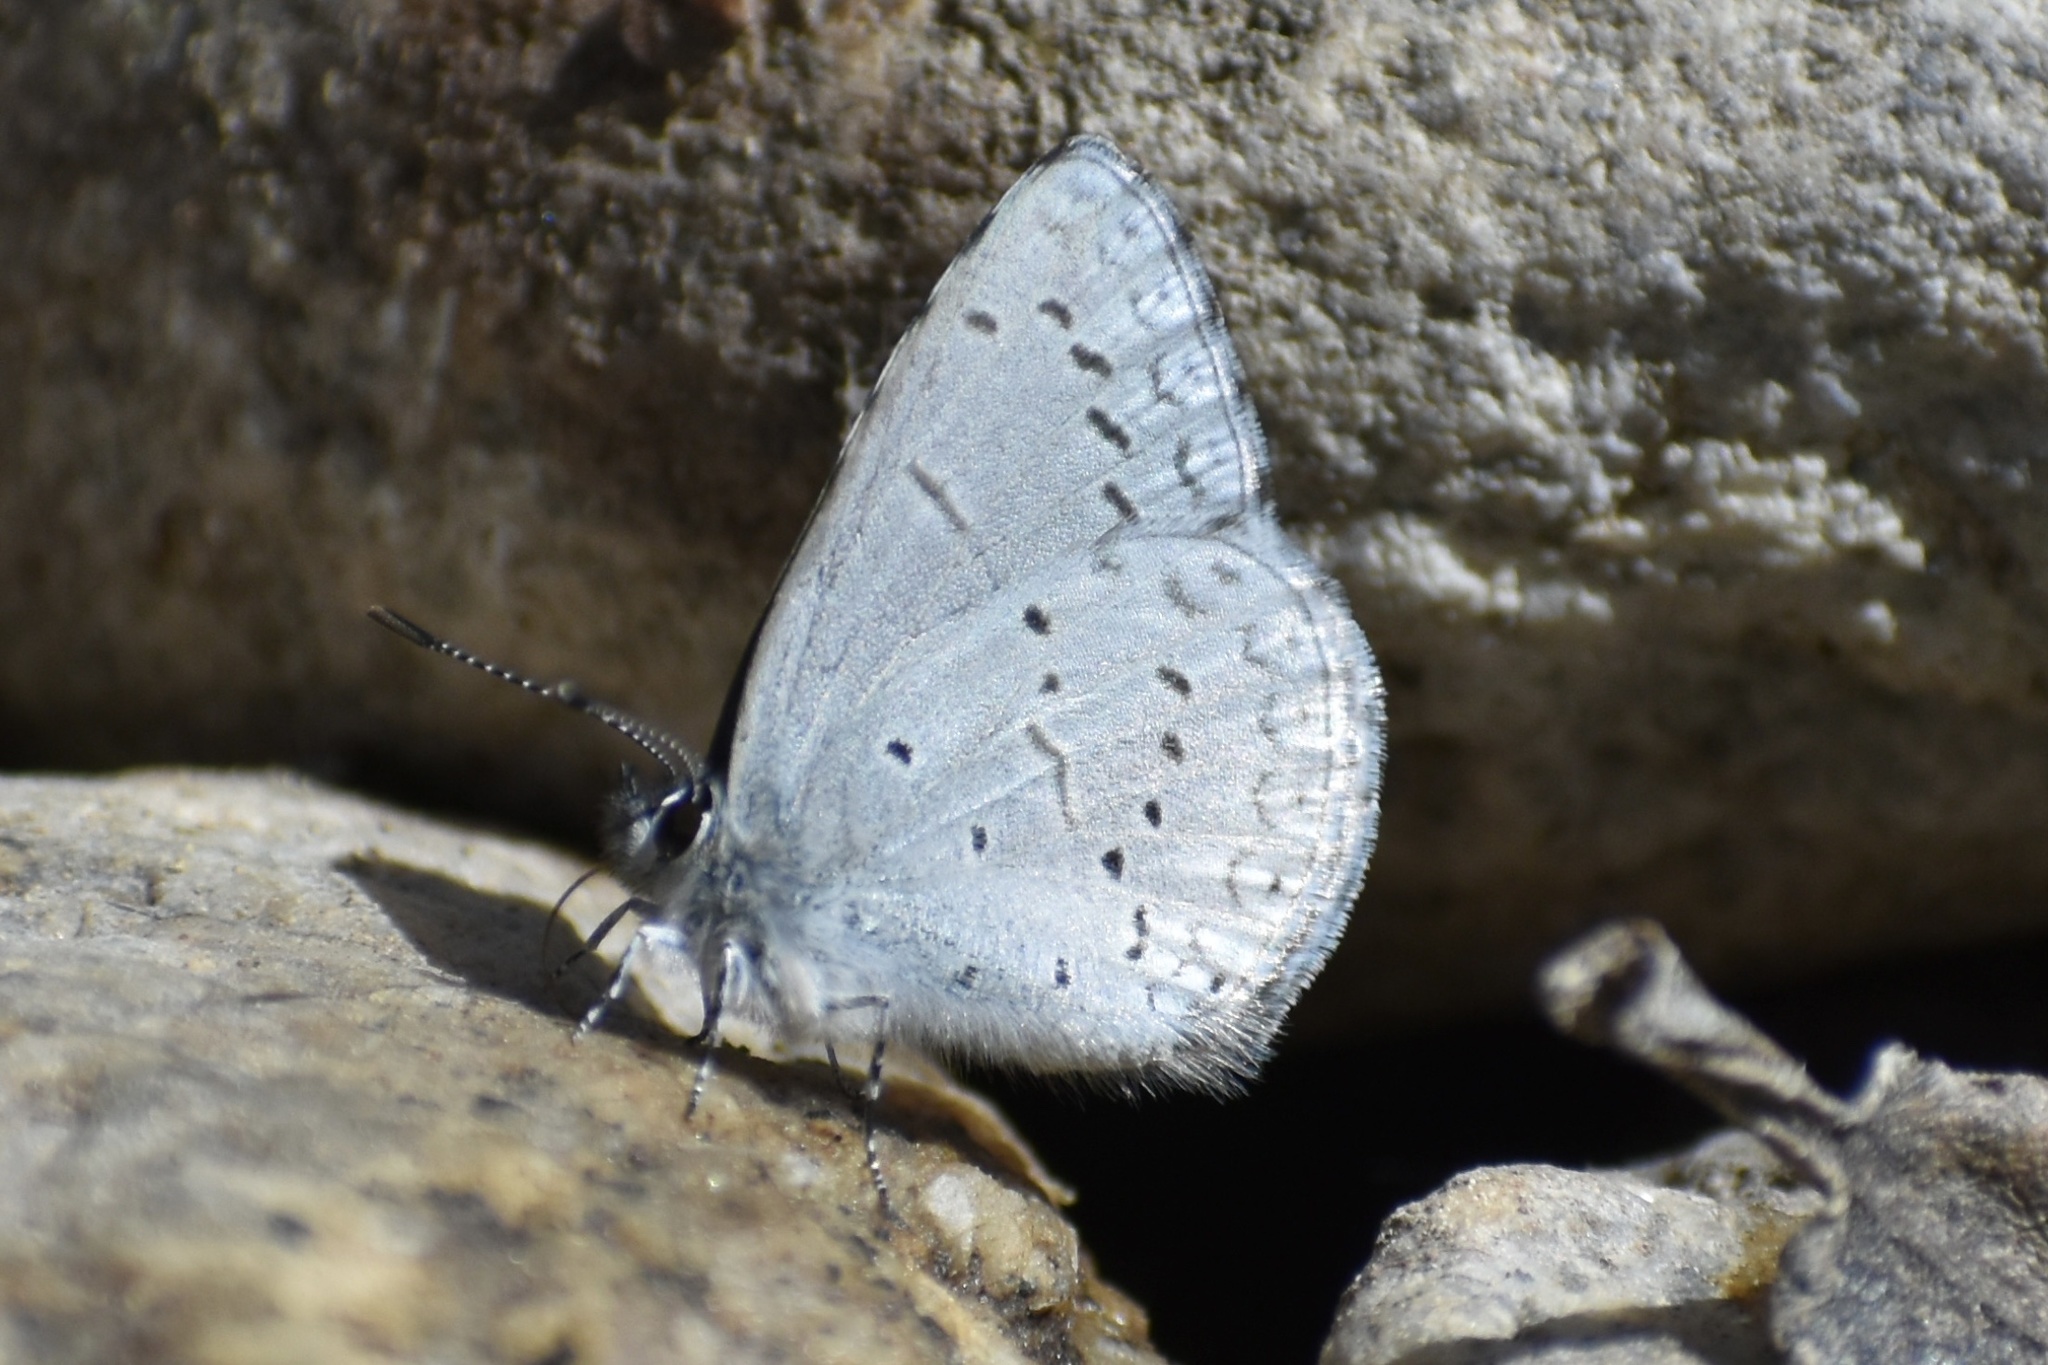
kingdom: Animalia
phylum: Arthropoda
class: Insecta
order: Lepidoptera
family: Lycaenidae
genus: Celastrina
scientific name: Celastrina ladon
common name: Spring azure
